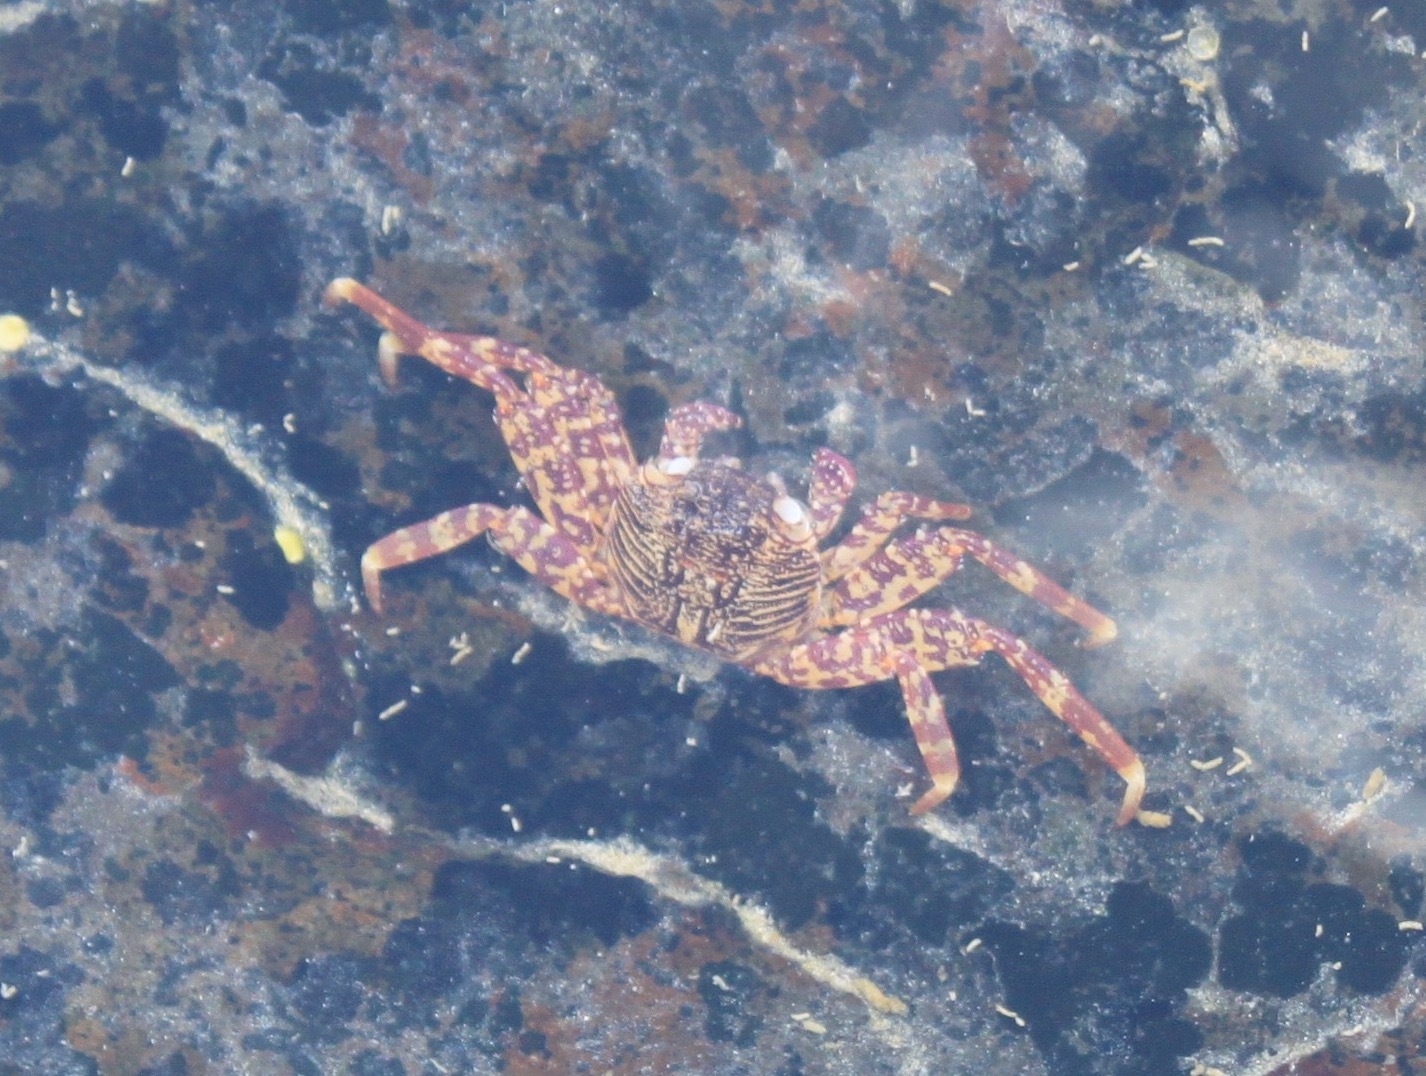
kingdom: Animalia
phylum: Arthropoda
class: Malacostraca
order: Decapoda
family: Grapsidae
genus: Grapsus
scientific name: Grapsus tenuicrustatus
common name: Natal lightfoot crab
